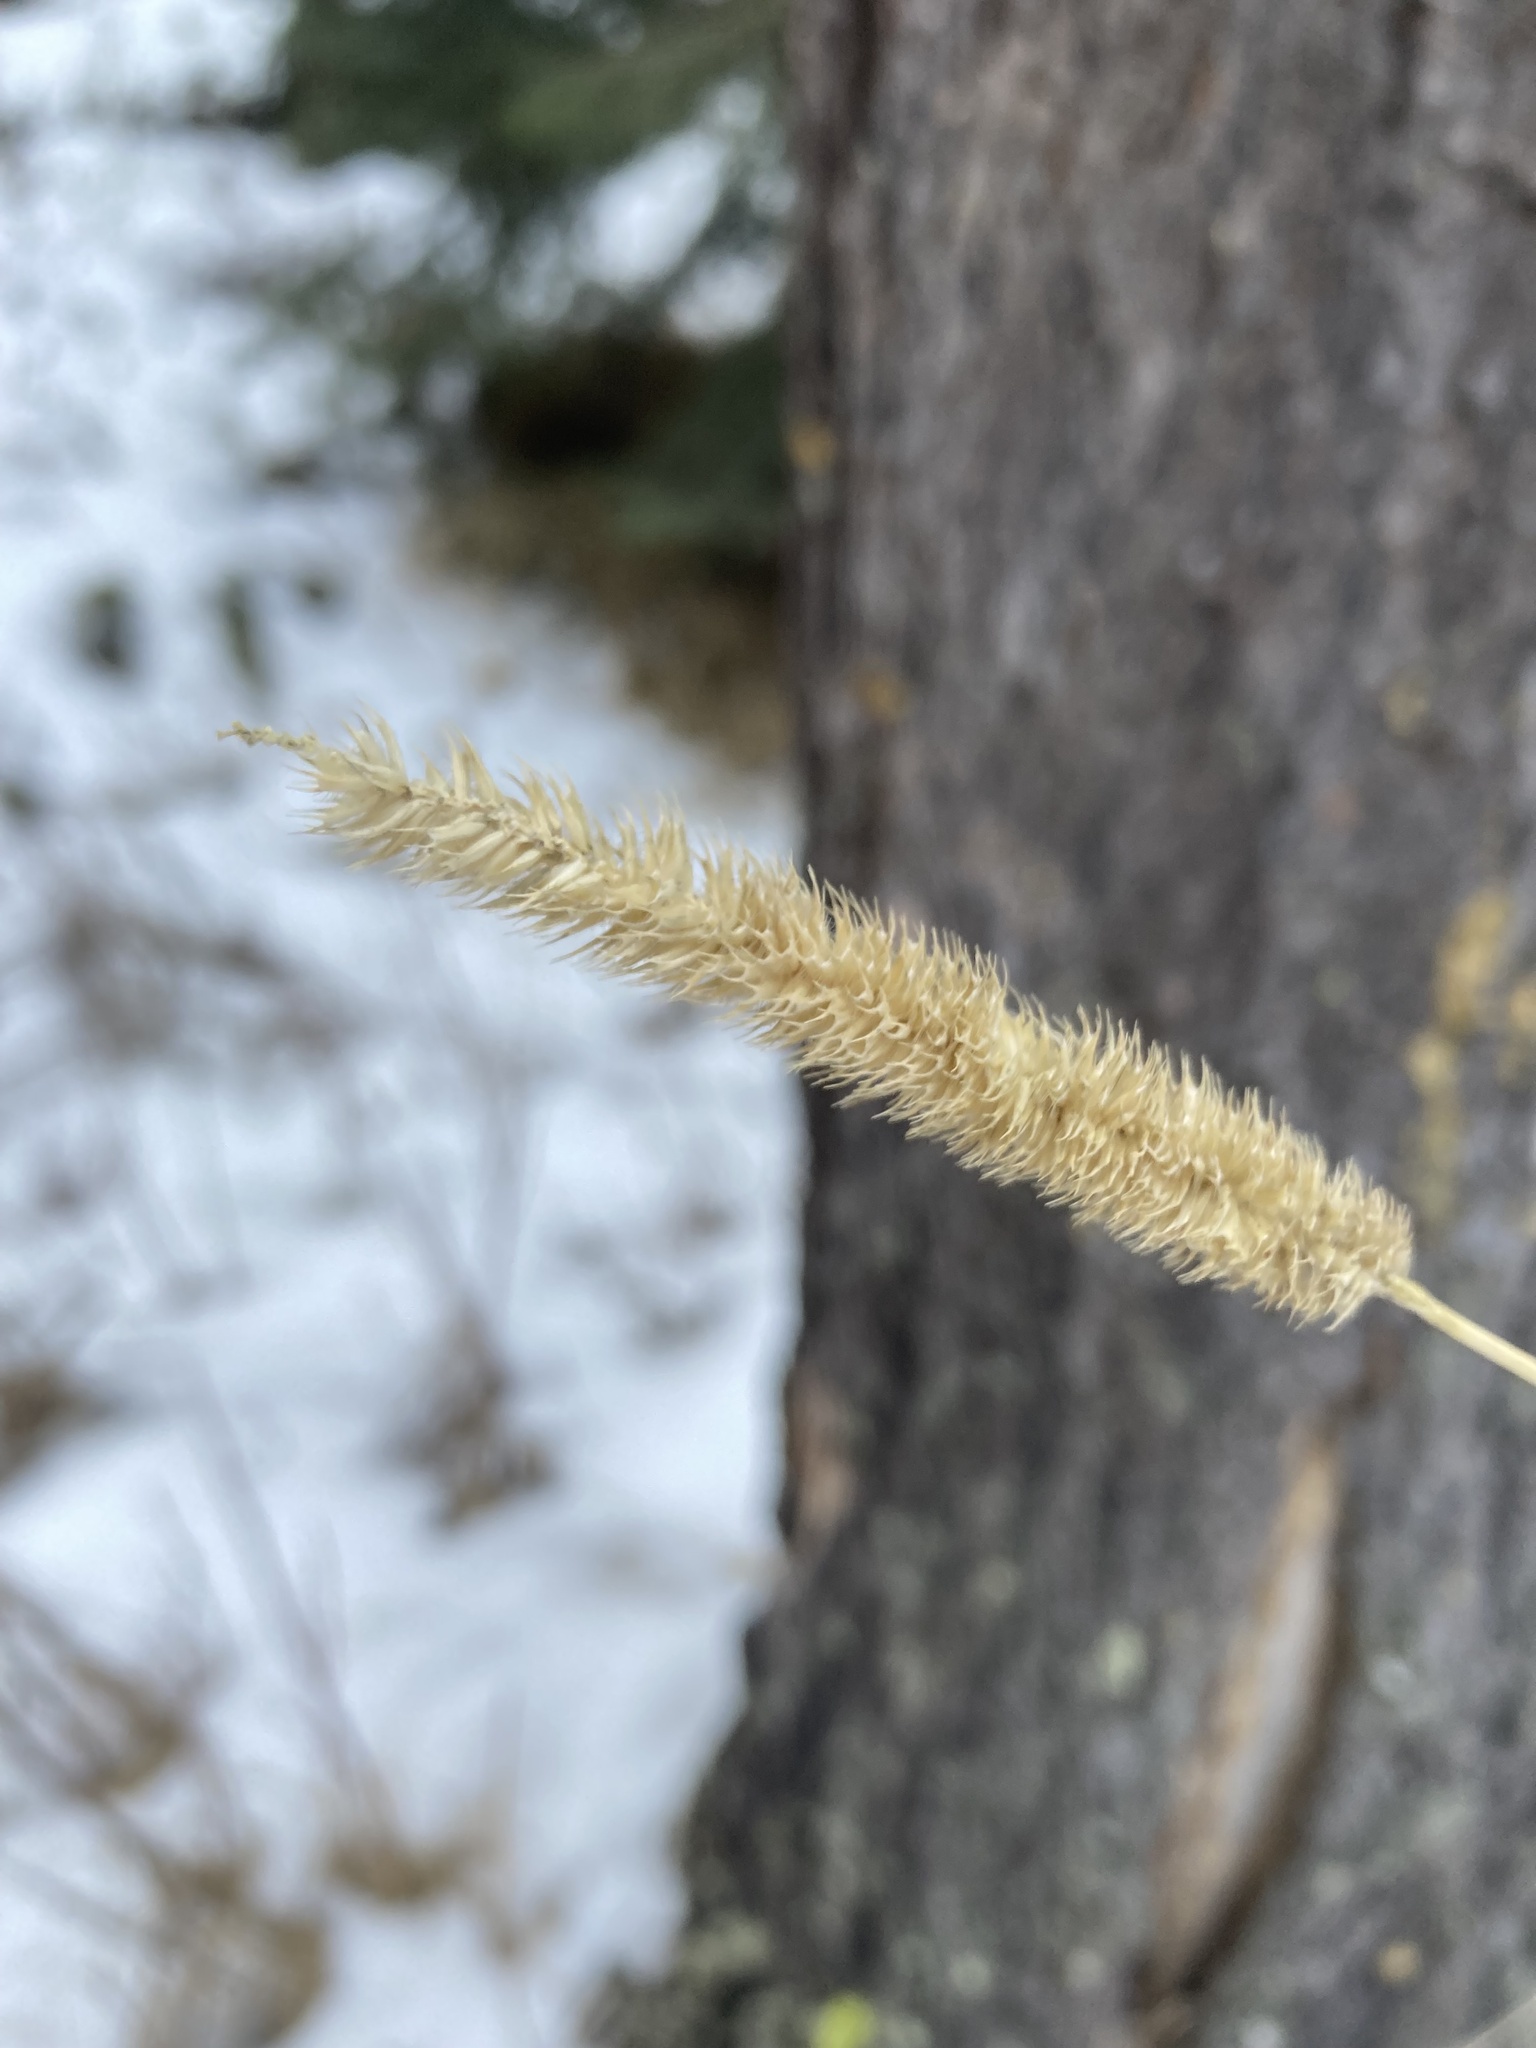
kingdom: Plantae
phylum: Tracheophyta
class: Liliopsida
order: Poales
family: Poaceae
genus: Phleum
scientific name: Phleum pratense
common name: Timothy grass
